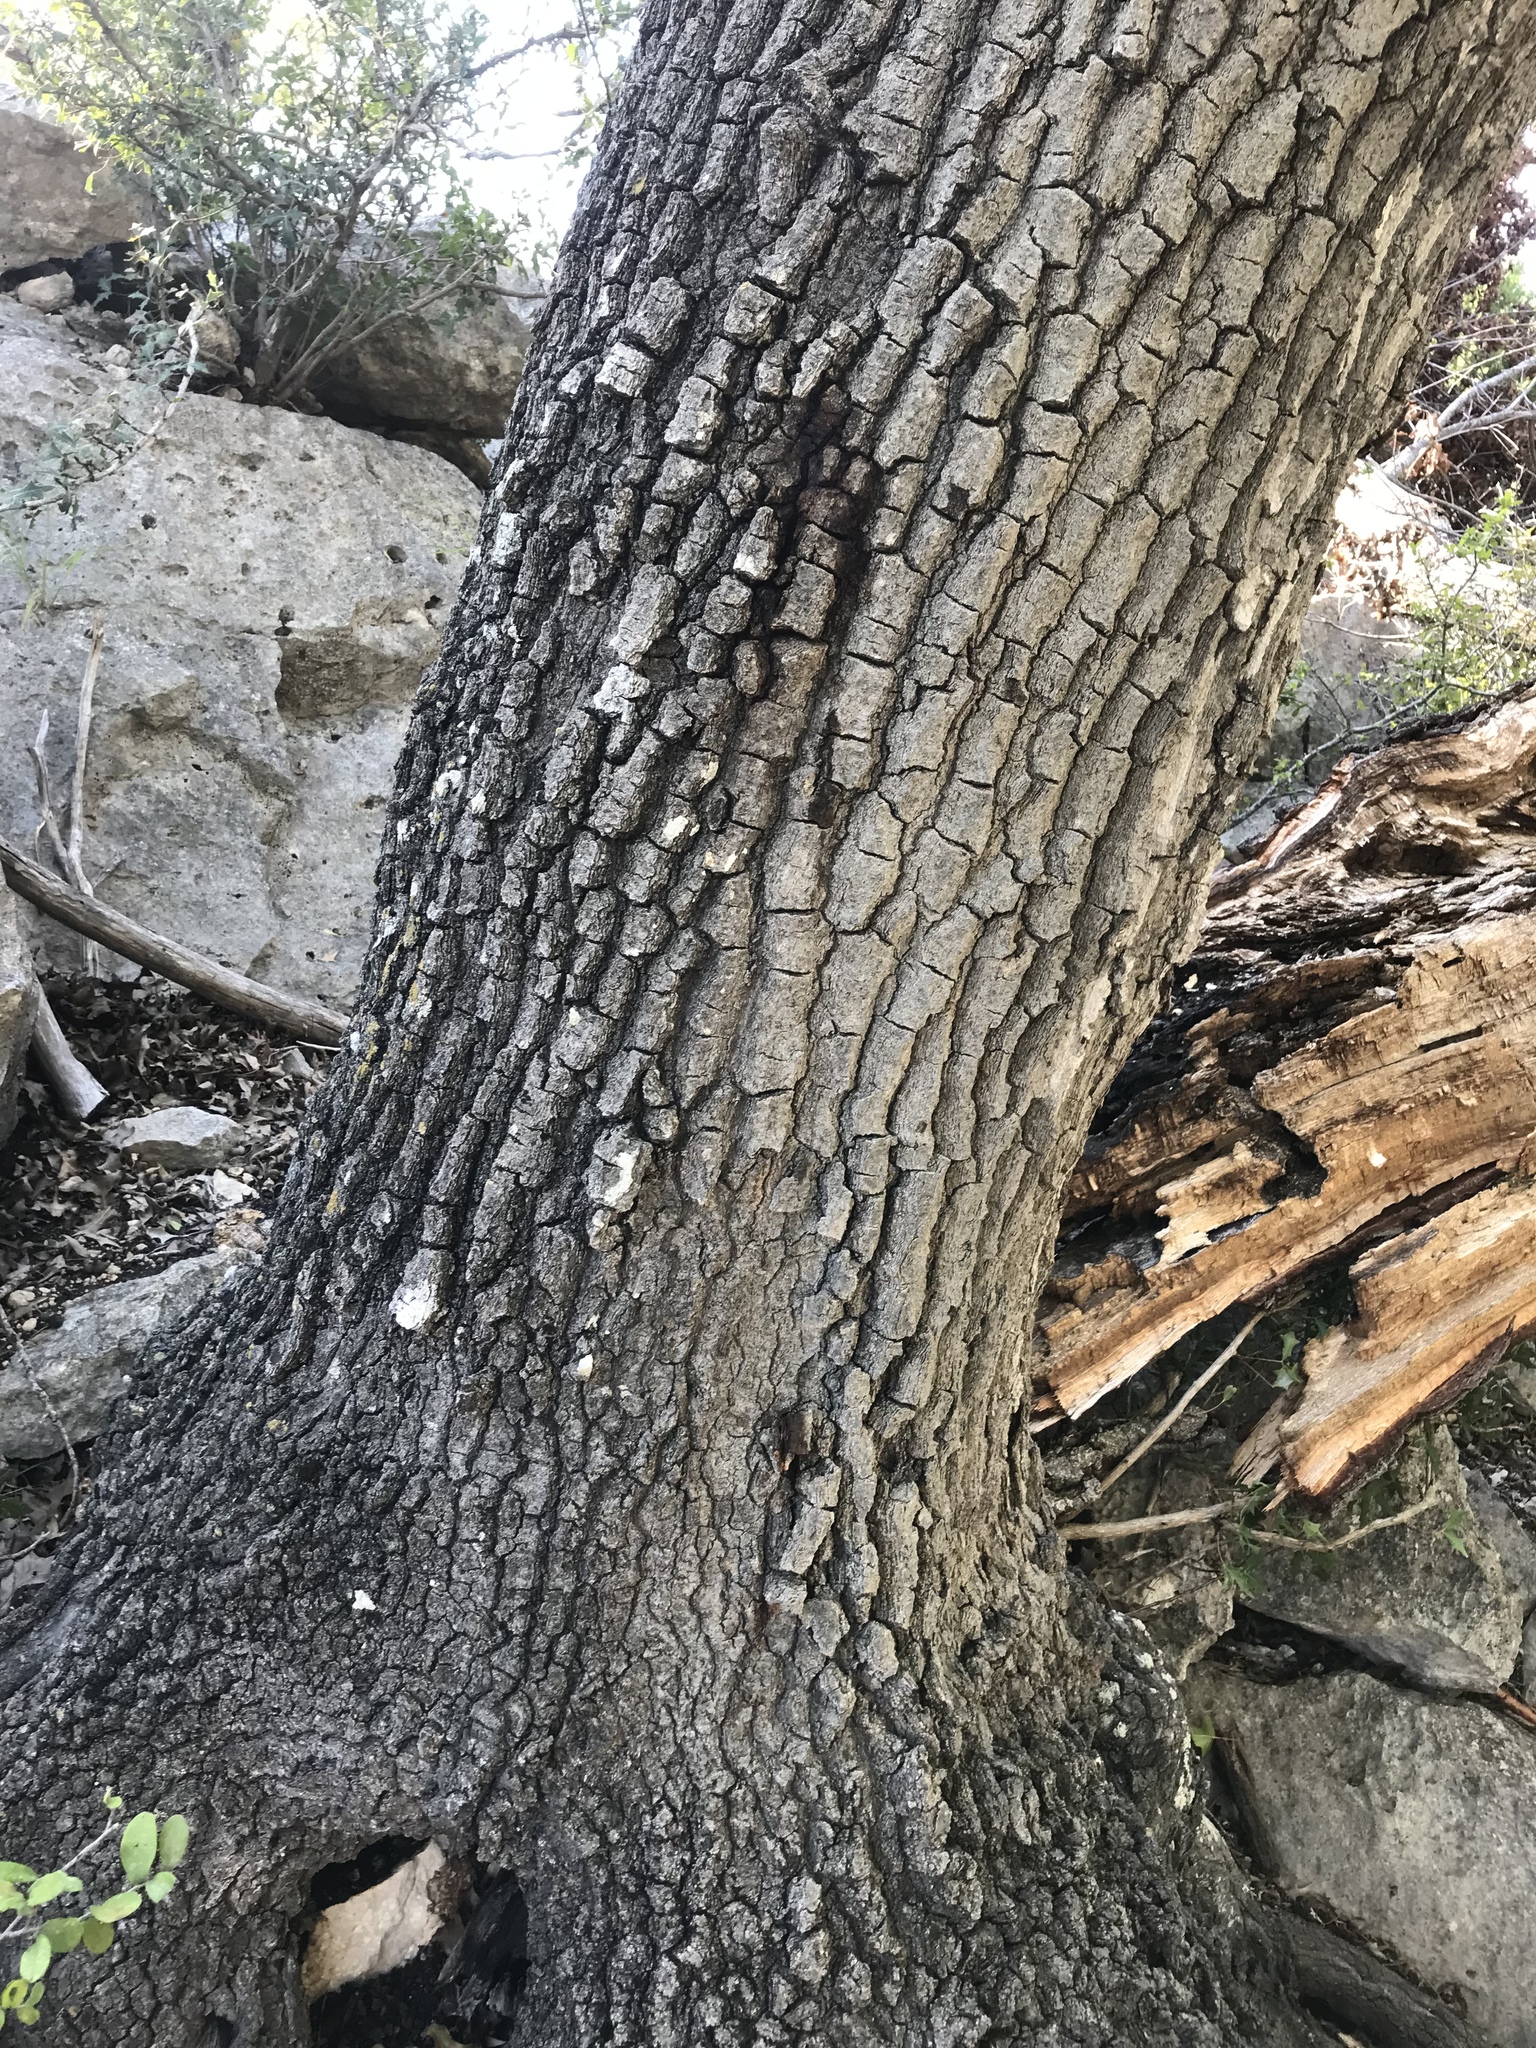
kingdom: Plantae
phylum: Tracheophyta
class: Magnoliopsida
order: Fagales
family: Fagaceae
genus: Quercus
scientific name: Quercus buckleyi
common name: Buckley oak
